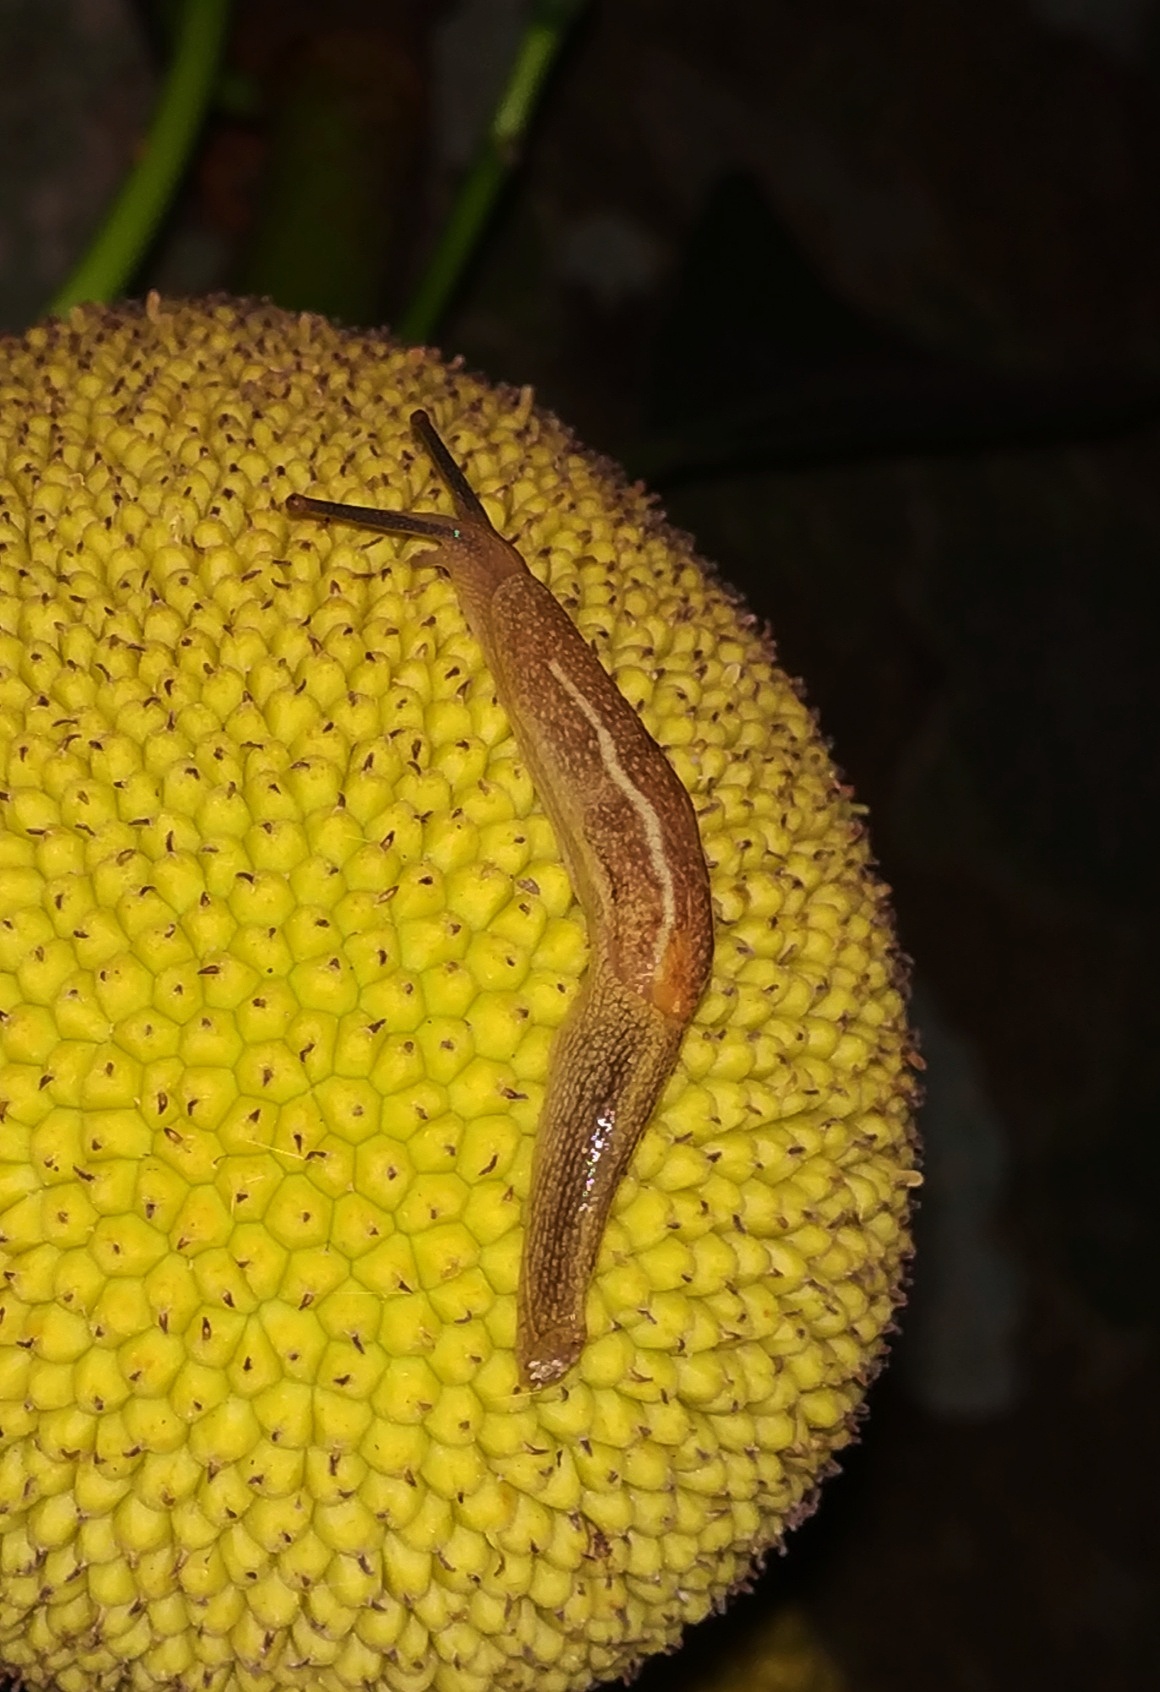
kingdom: Animalia
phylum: Mollusca
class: Gastropoda
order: Stylommatophora
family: Ariophantidae
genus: Mariaella
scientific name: Mariaella dussumieri
